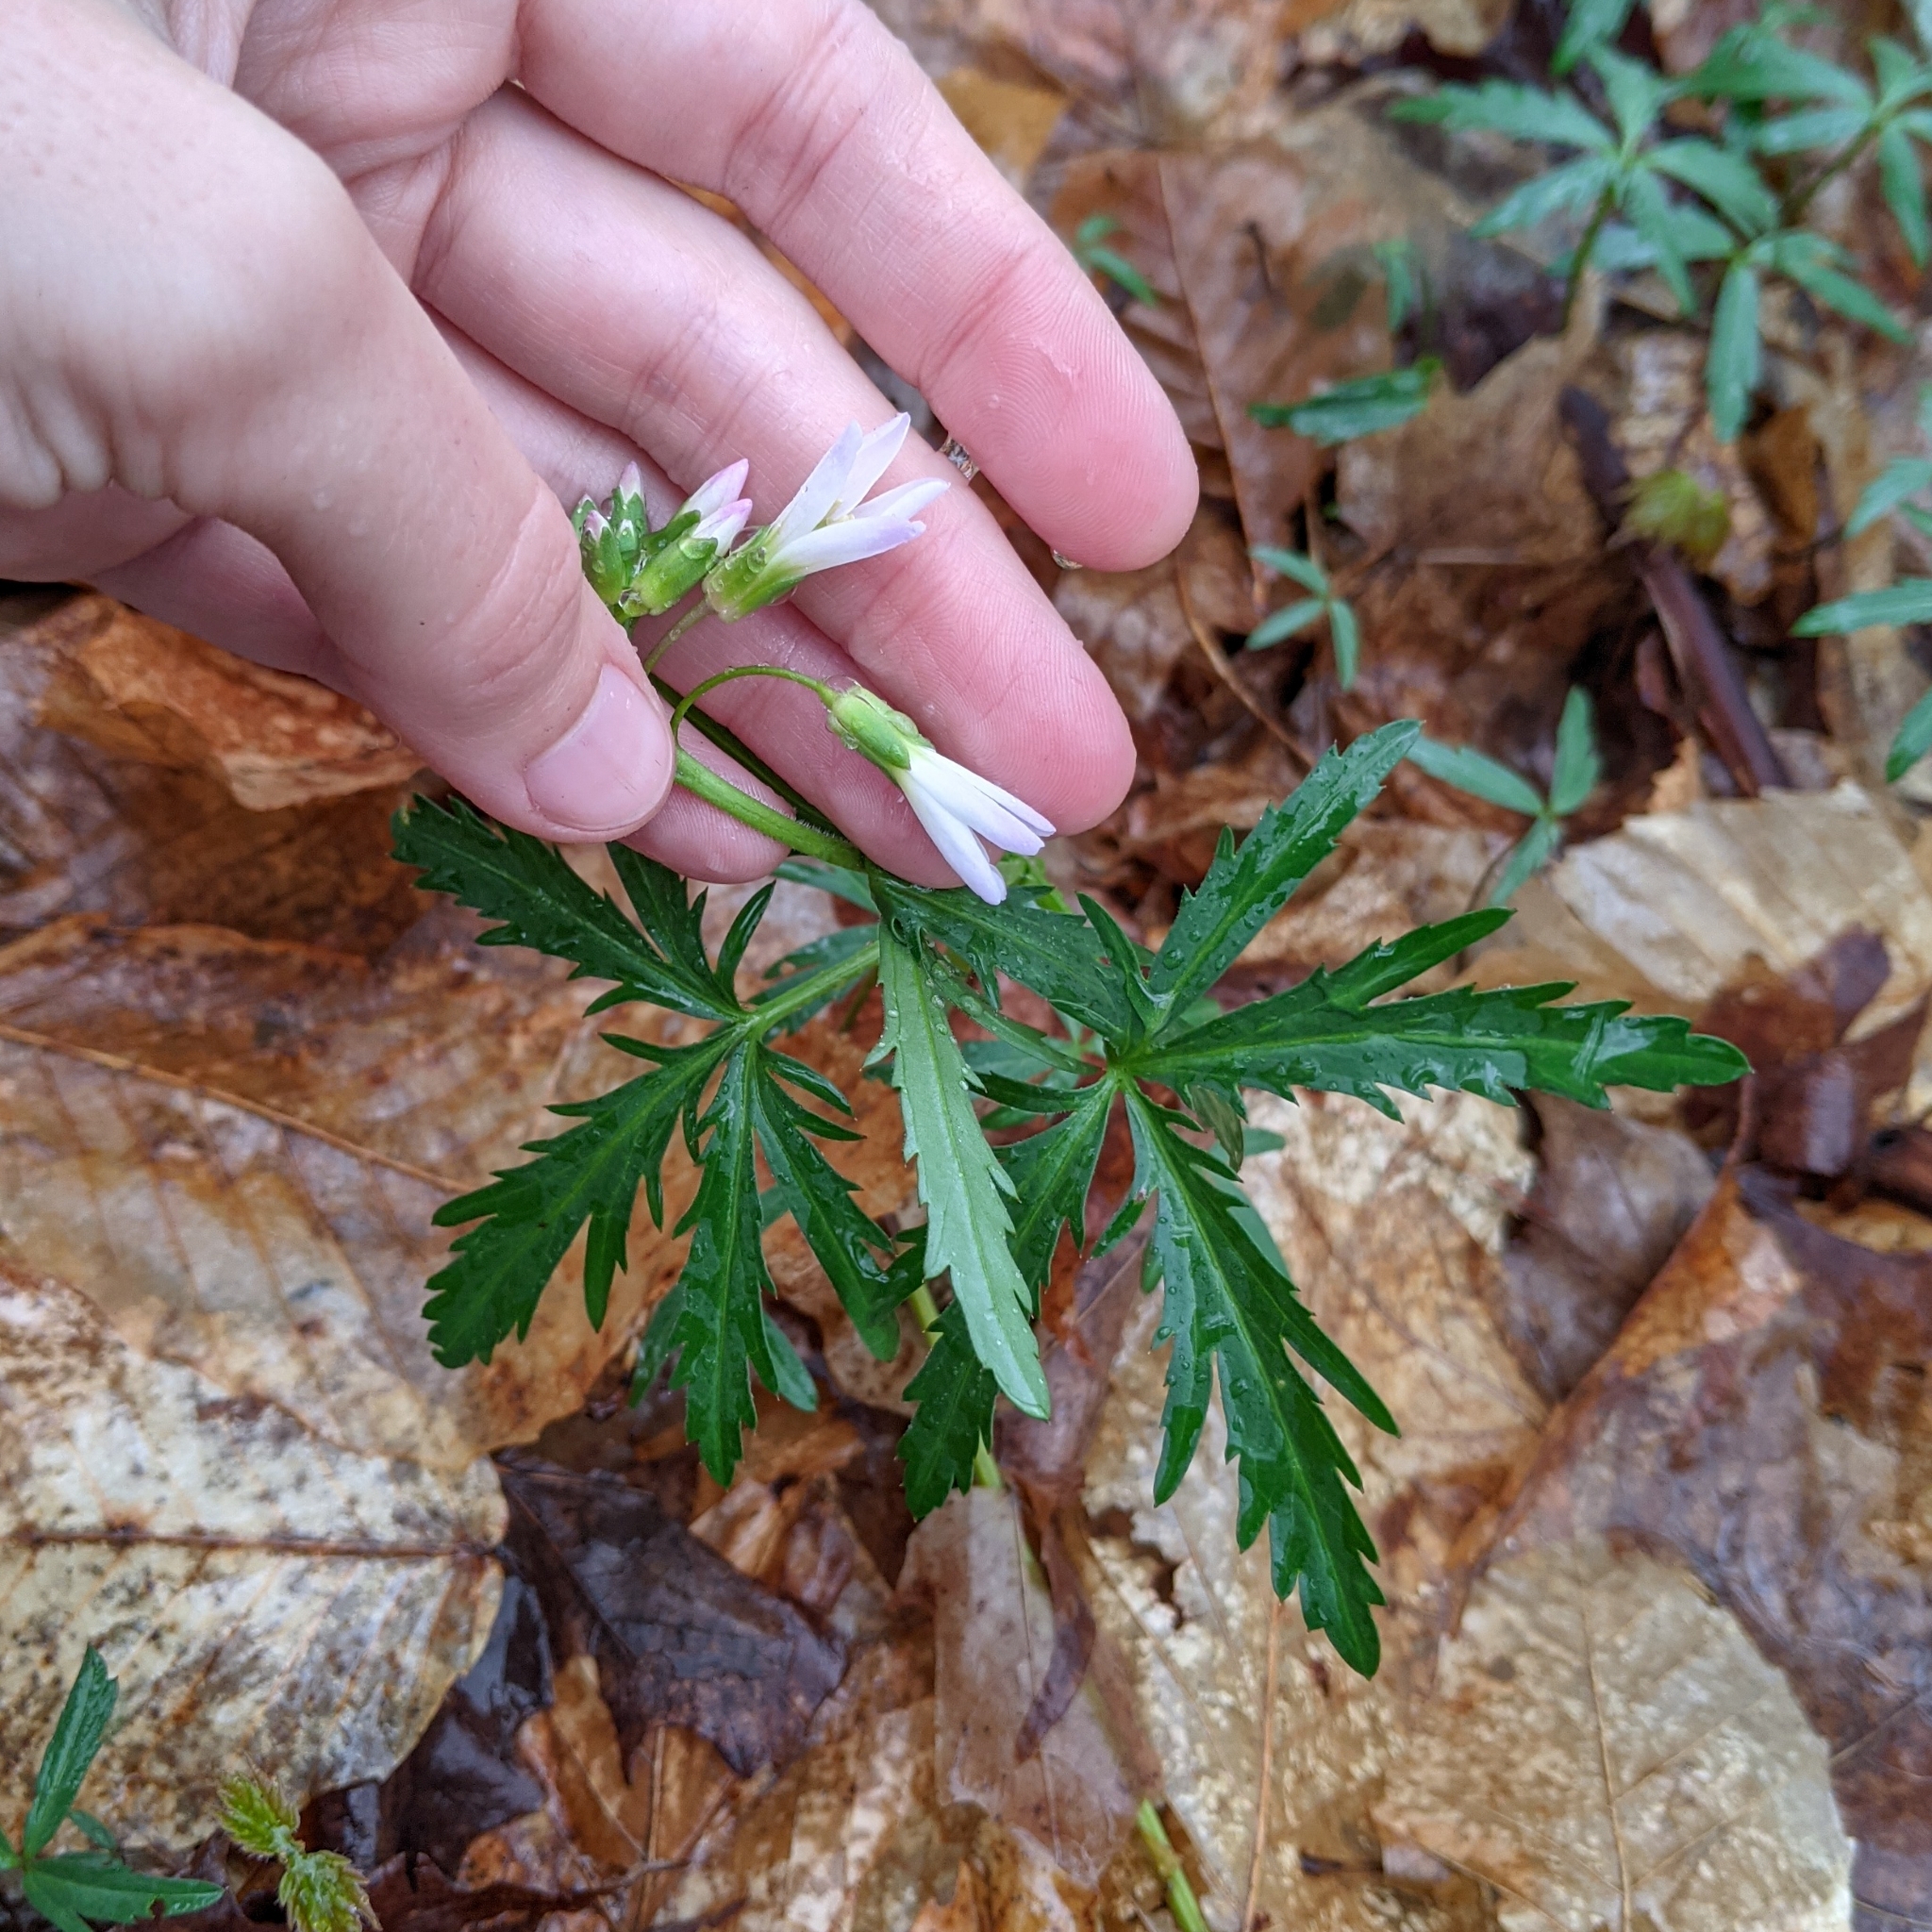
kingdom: Plantae
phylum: Tracheophyta
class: Magnoliopsida
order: Brassicales
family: Brassicaceae
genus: Cardamine
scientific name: Cardamine concatenata
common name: Cut-leaf toothcup
